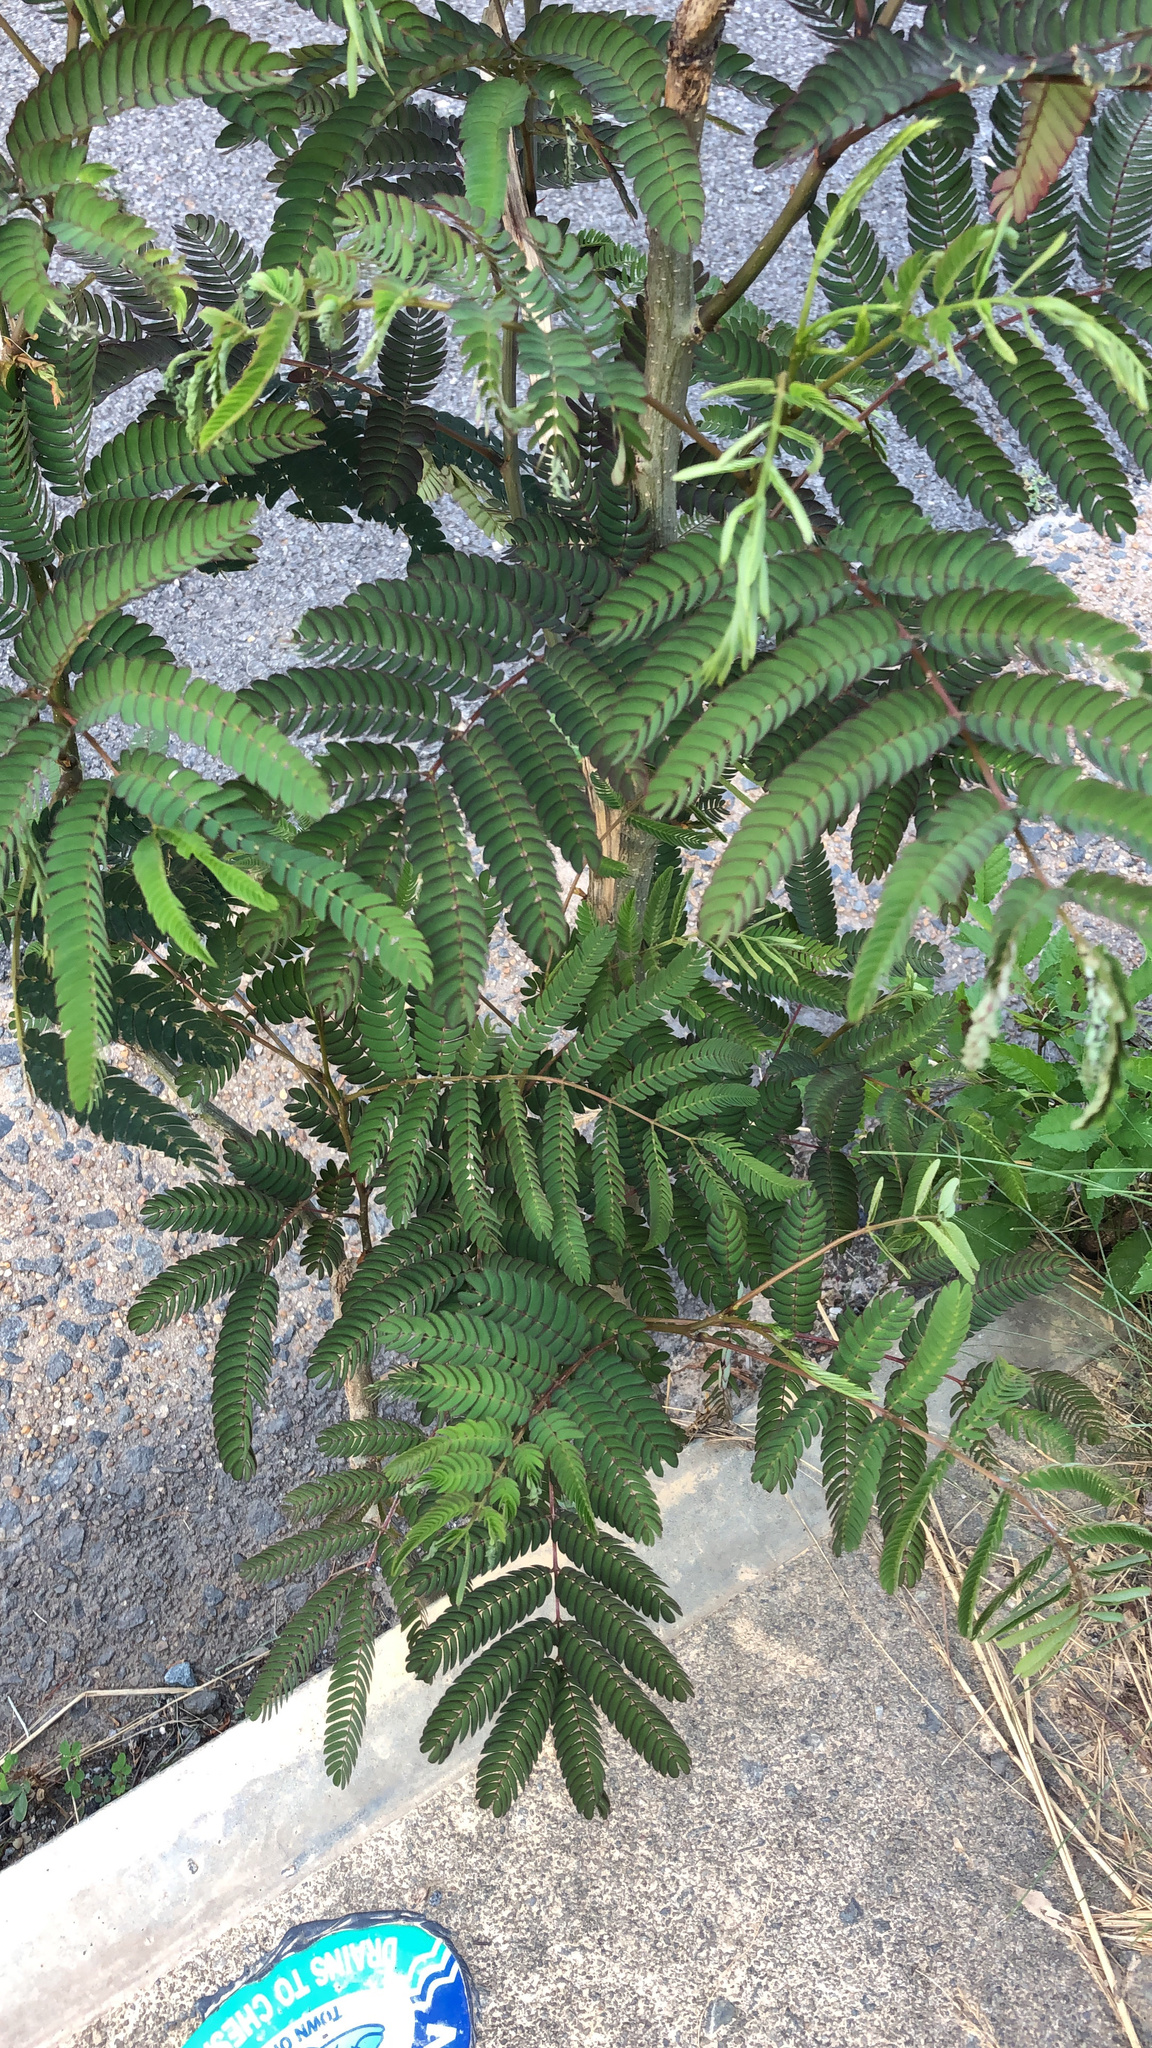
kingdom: Plantae
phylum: Tracheophyta
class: Magnoliopsida
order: Fabales
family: Fabaceae
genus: Albizia
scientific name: Albizia julibrissin
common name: Silktree
